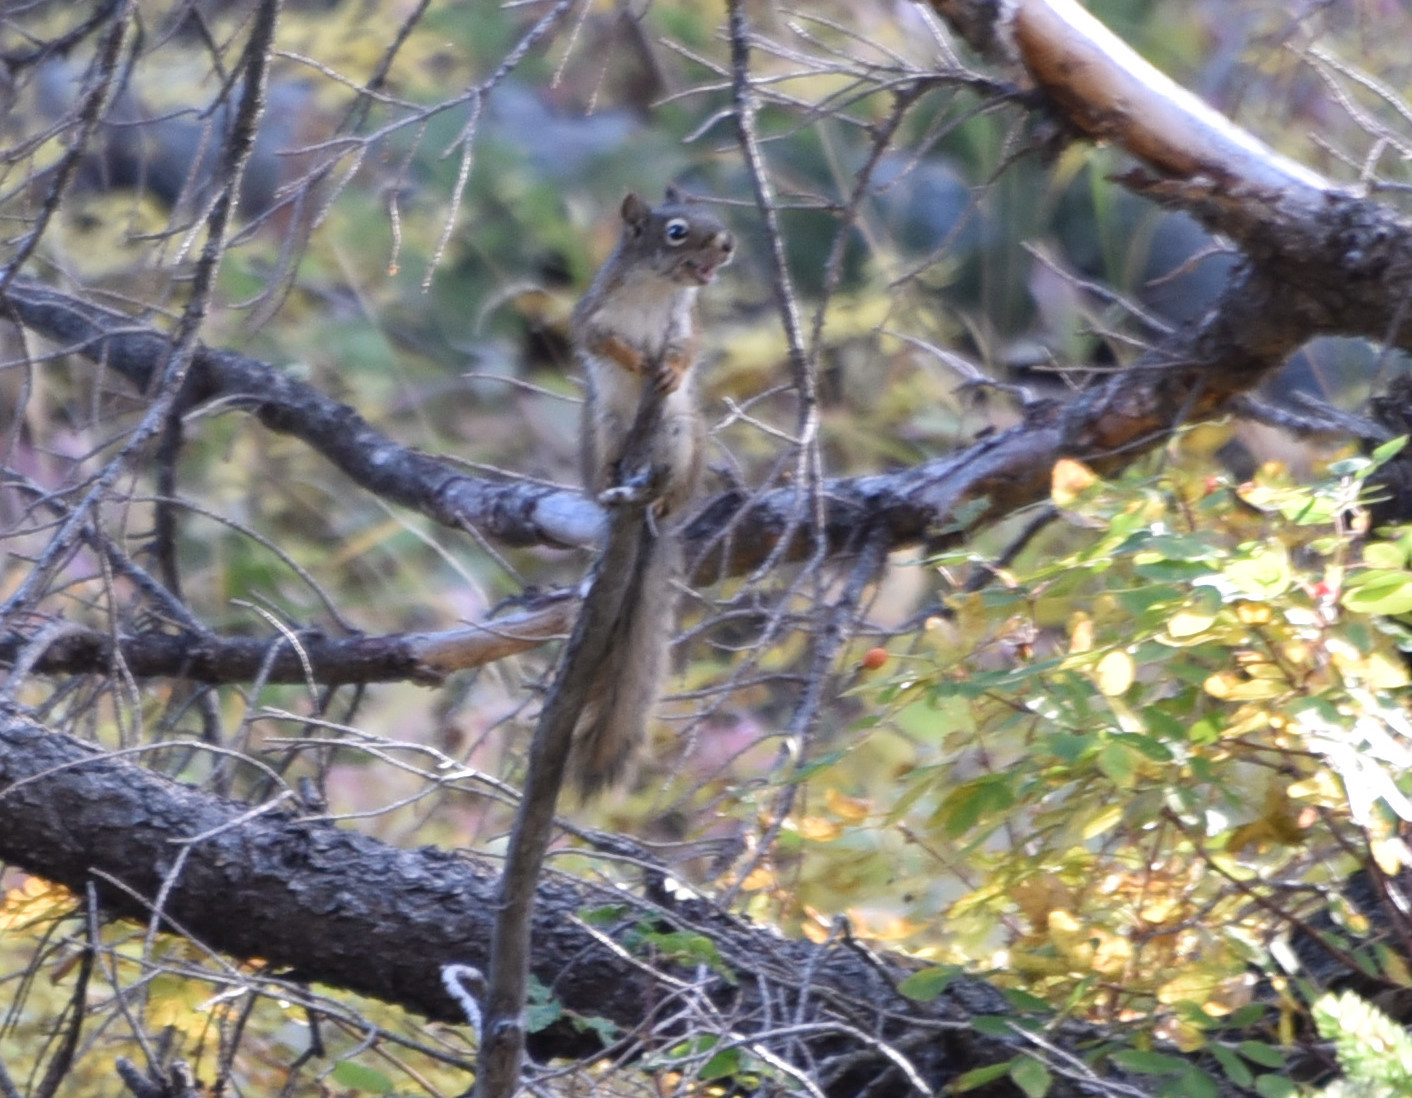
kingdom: Animalia
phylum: Chordata
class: Mammalia
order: Rodentia
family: Sciuridae
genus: Tamiasciurus
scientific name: Tamiasciurus hudsonicus
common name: Red squirrel
